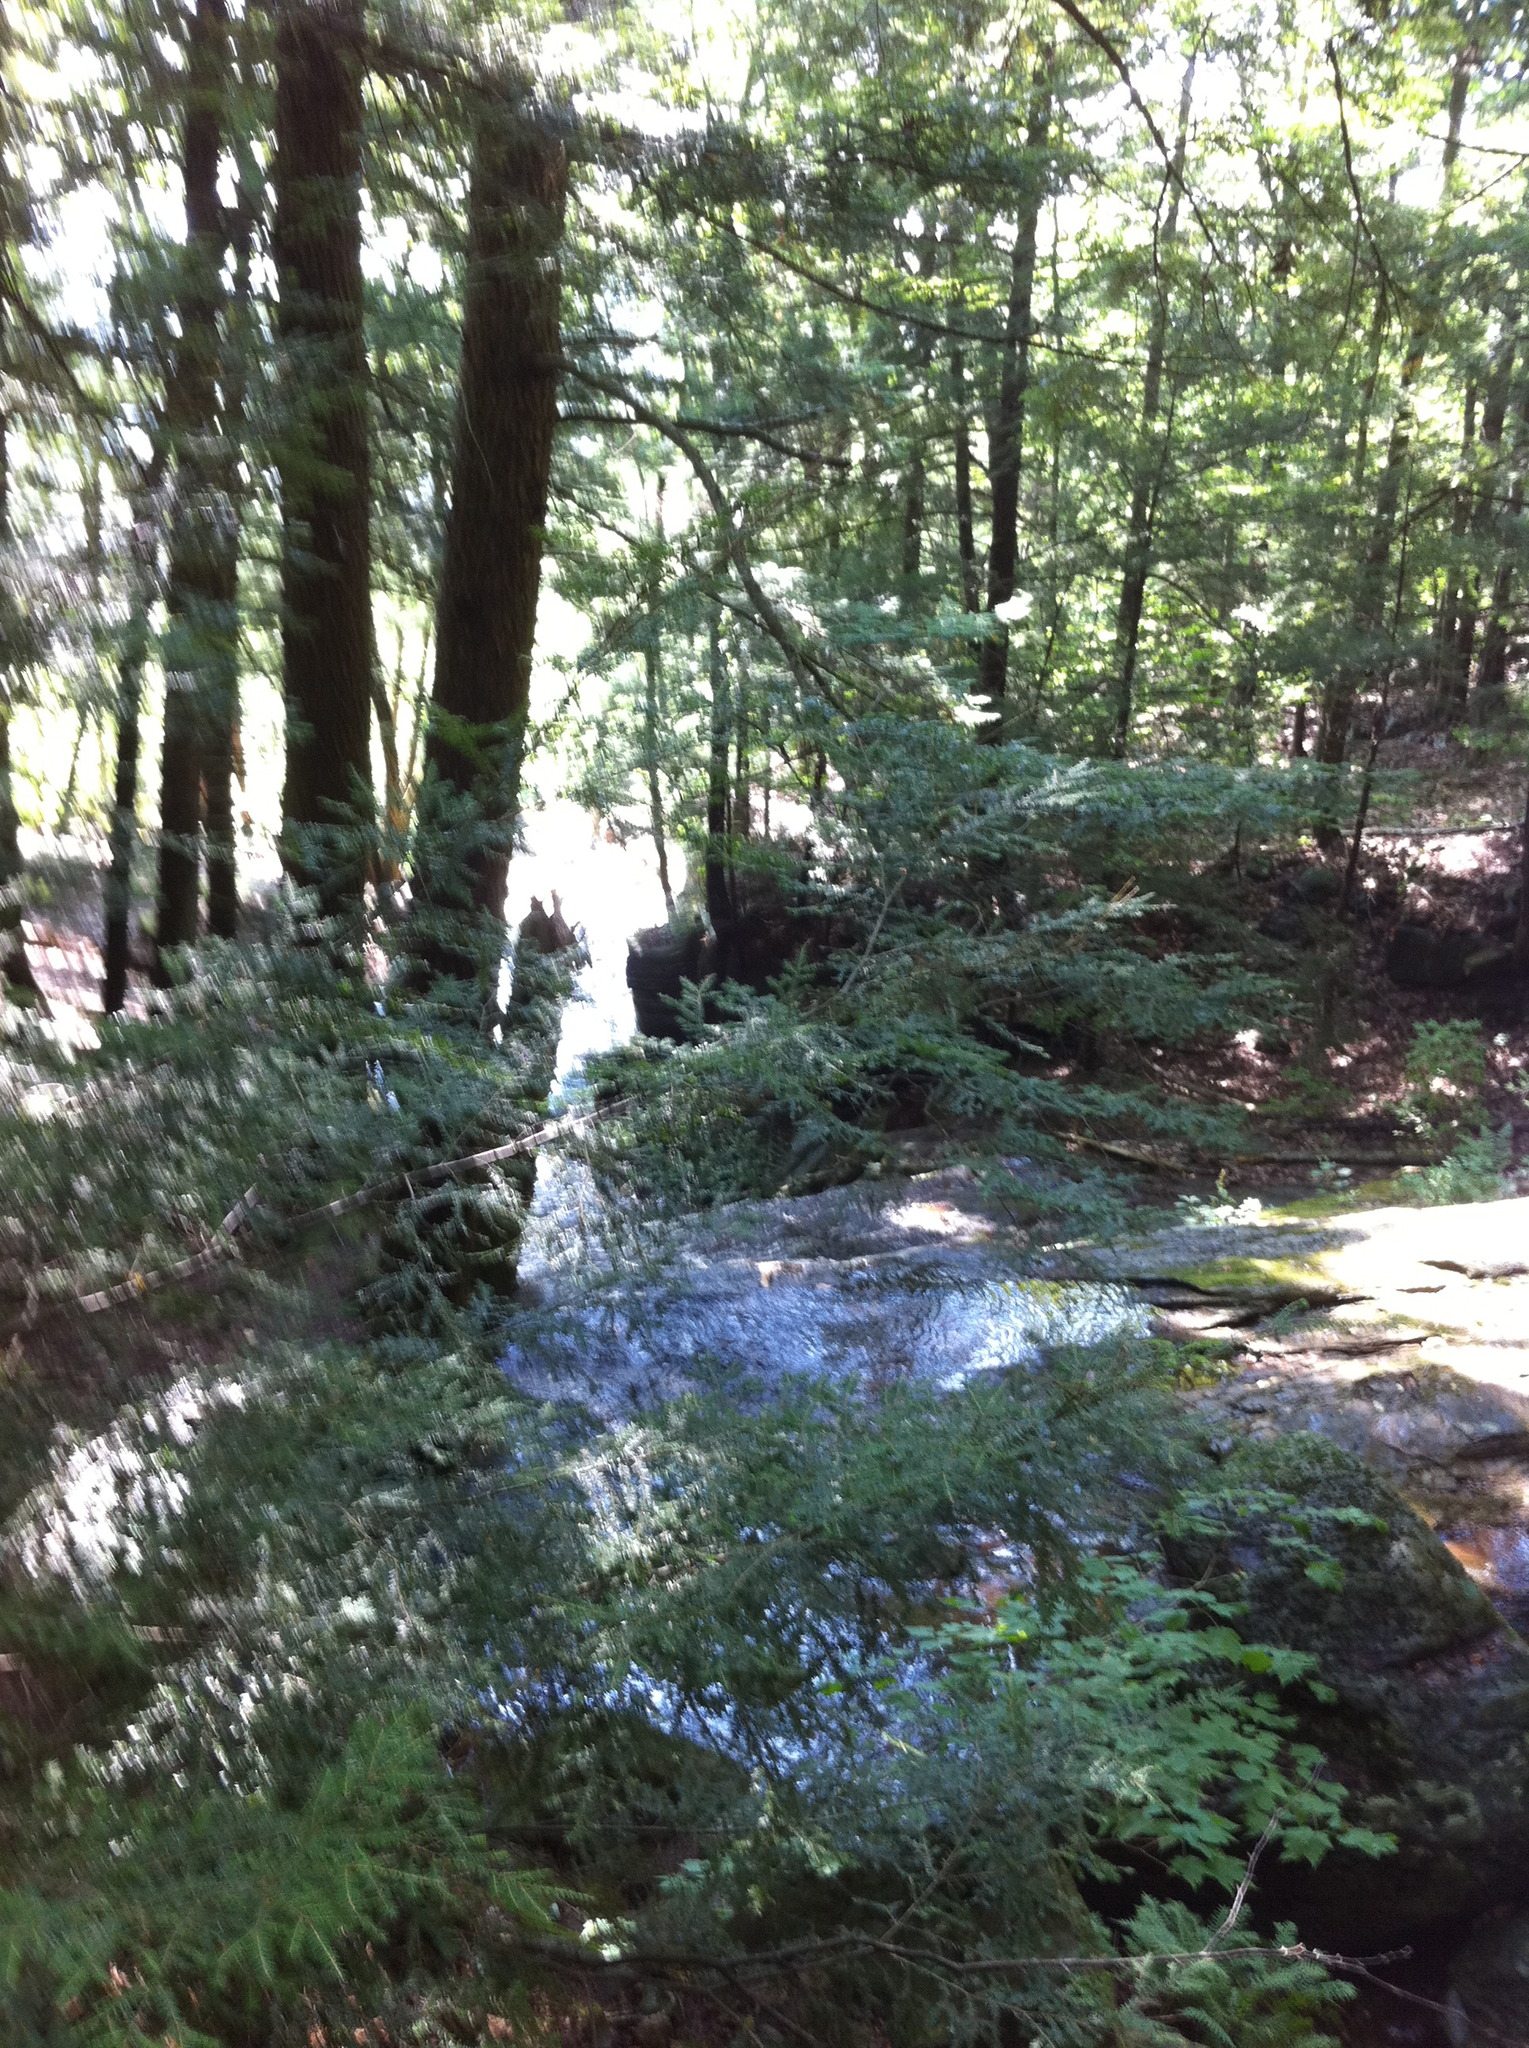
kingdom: Plantae
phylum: Tracheophyta
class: Pinopsida
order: Pinales
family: Pinaceae
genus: Tsuga
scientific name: Tsuga canadensis
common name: Eastern hemlock
